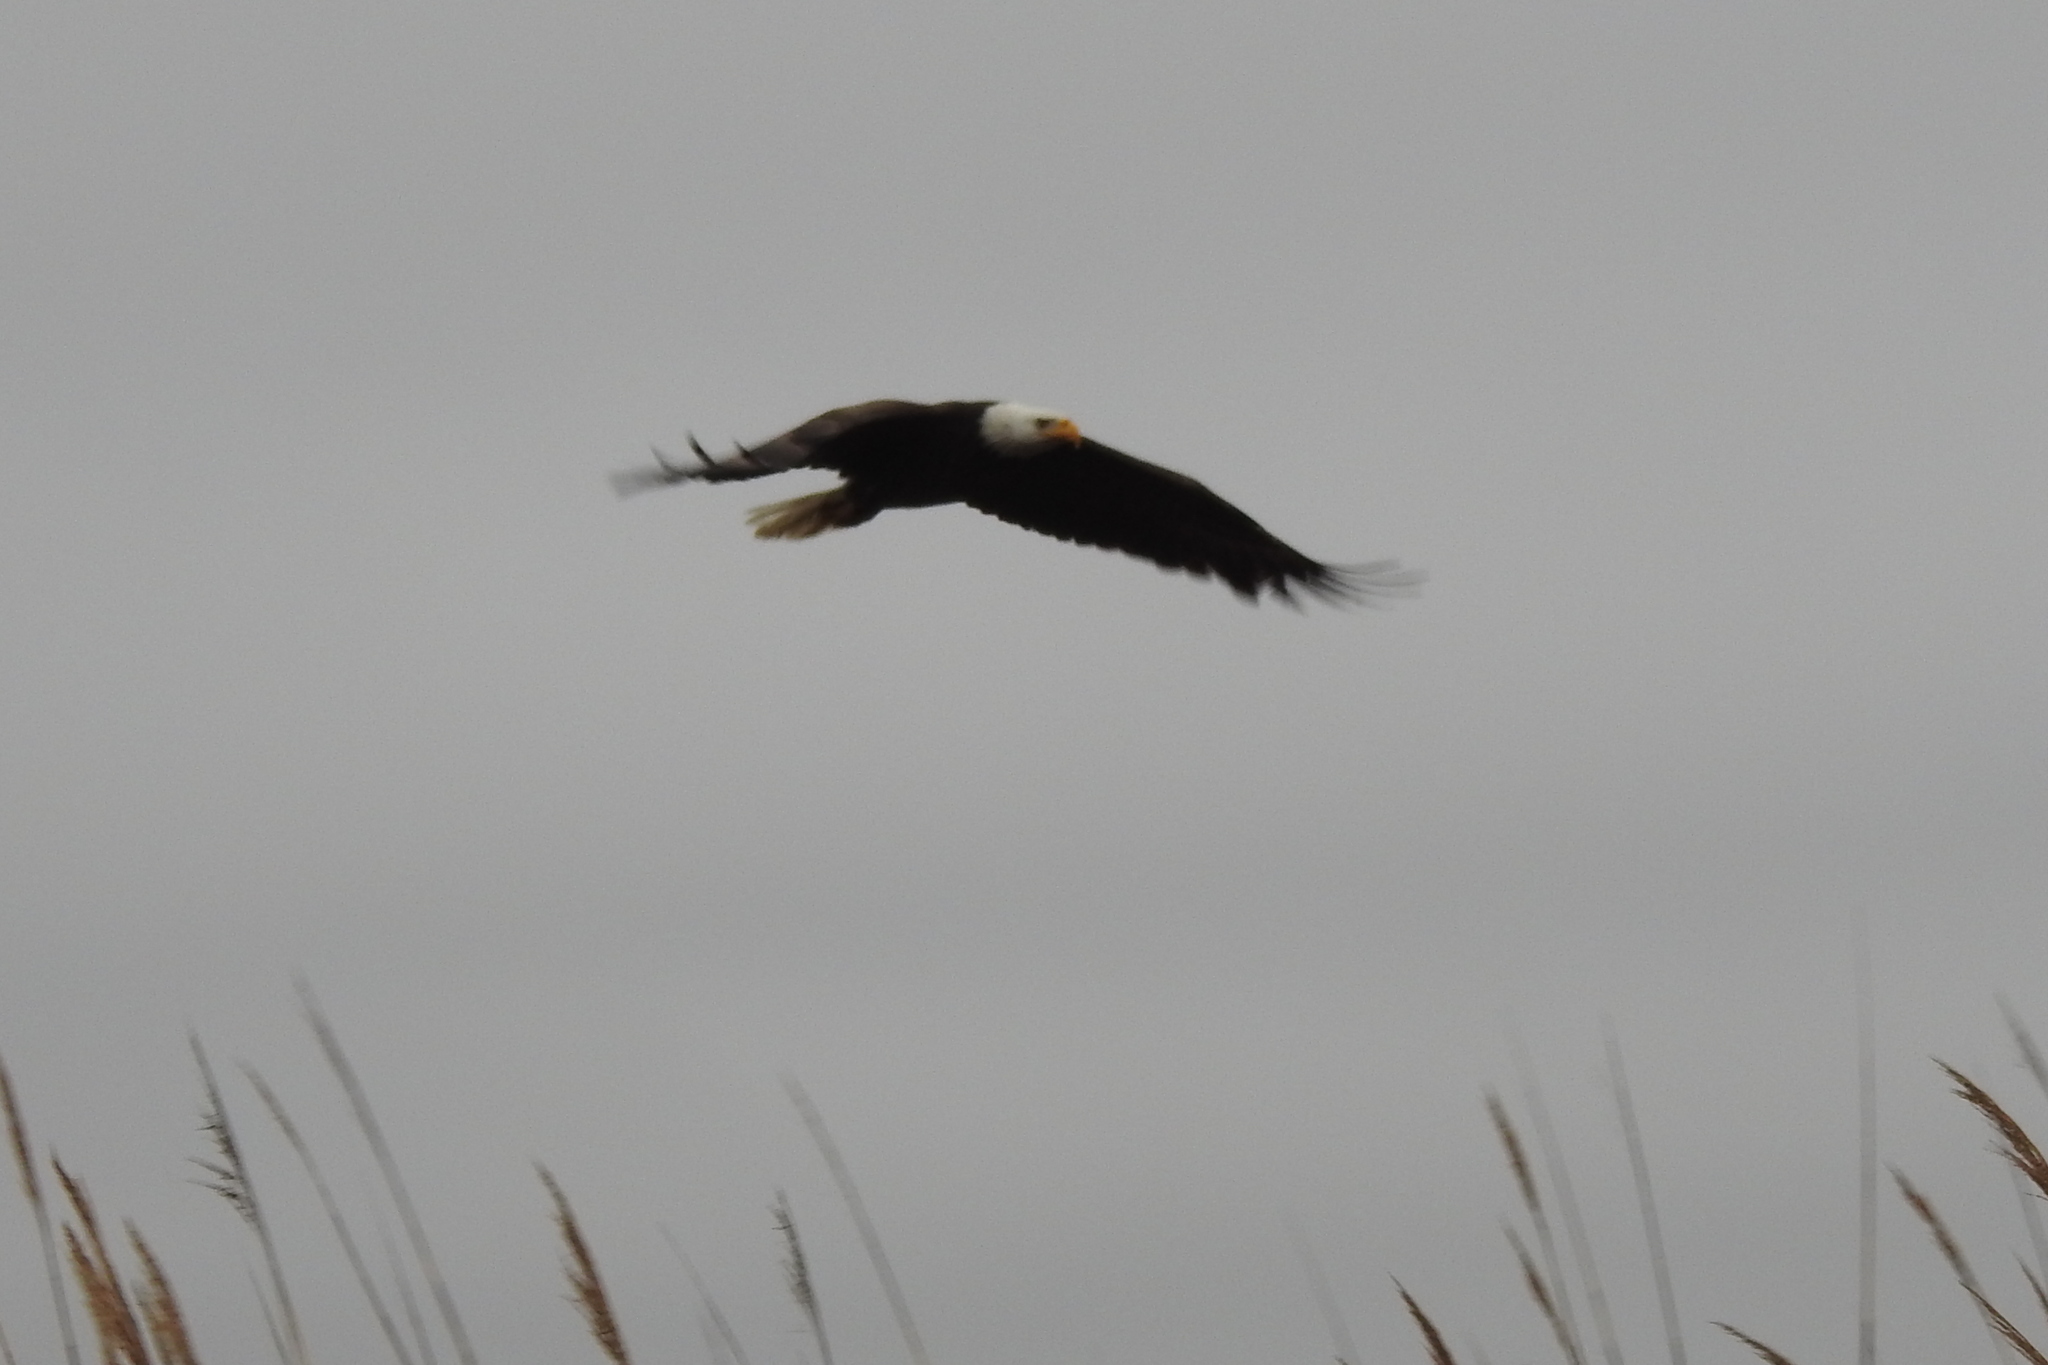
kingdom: Animalia
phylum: Chordata
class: Aves
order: Accipitriformes
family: Accipitridae
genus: Haliaeetus
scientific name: Haliaeetus leucocephalus
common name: Bald eagle
